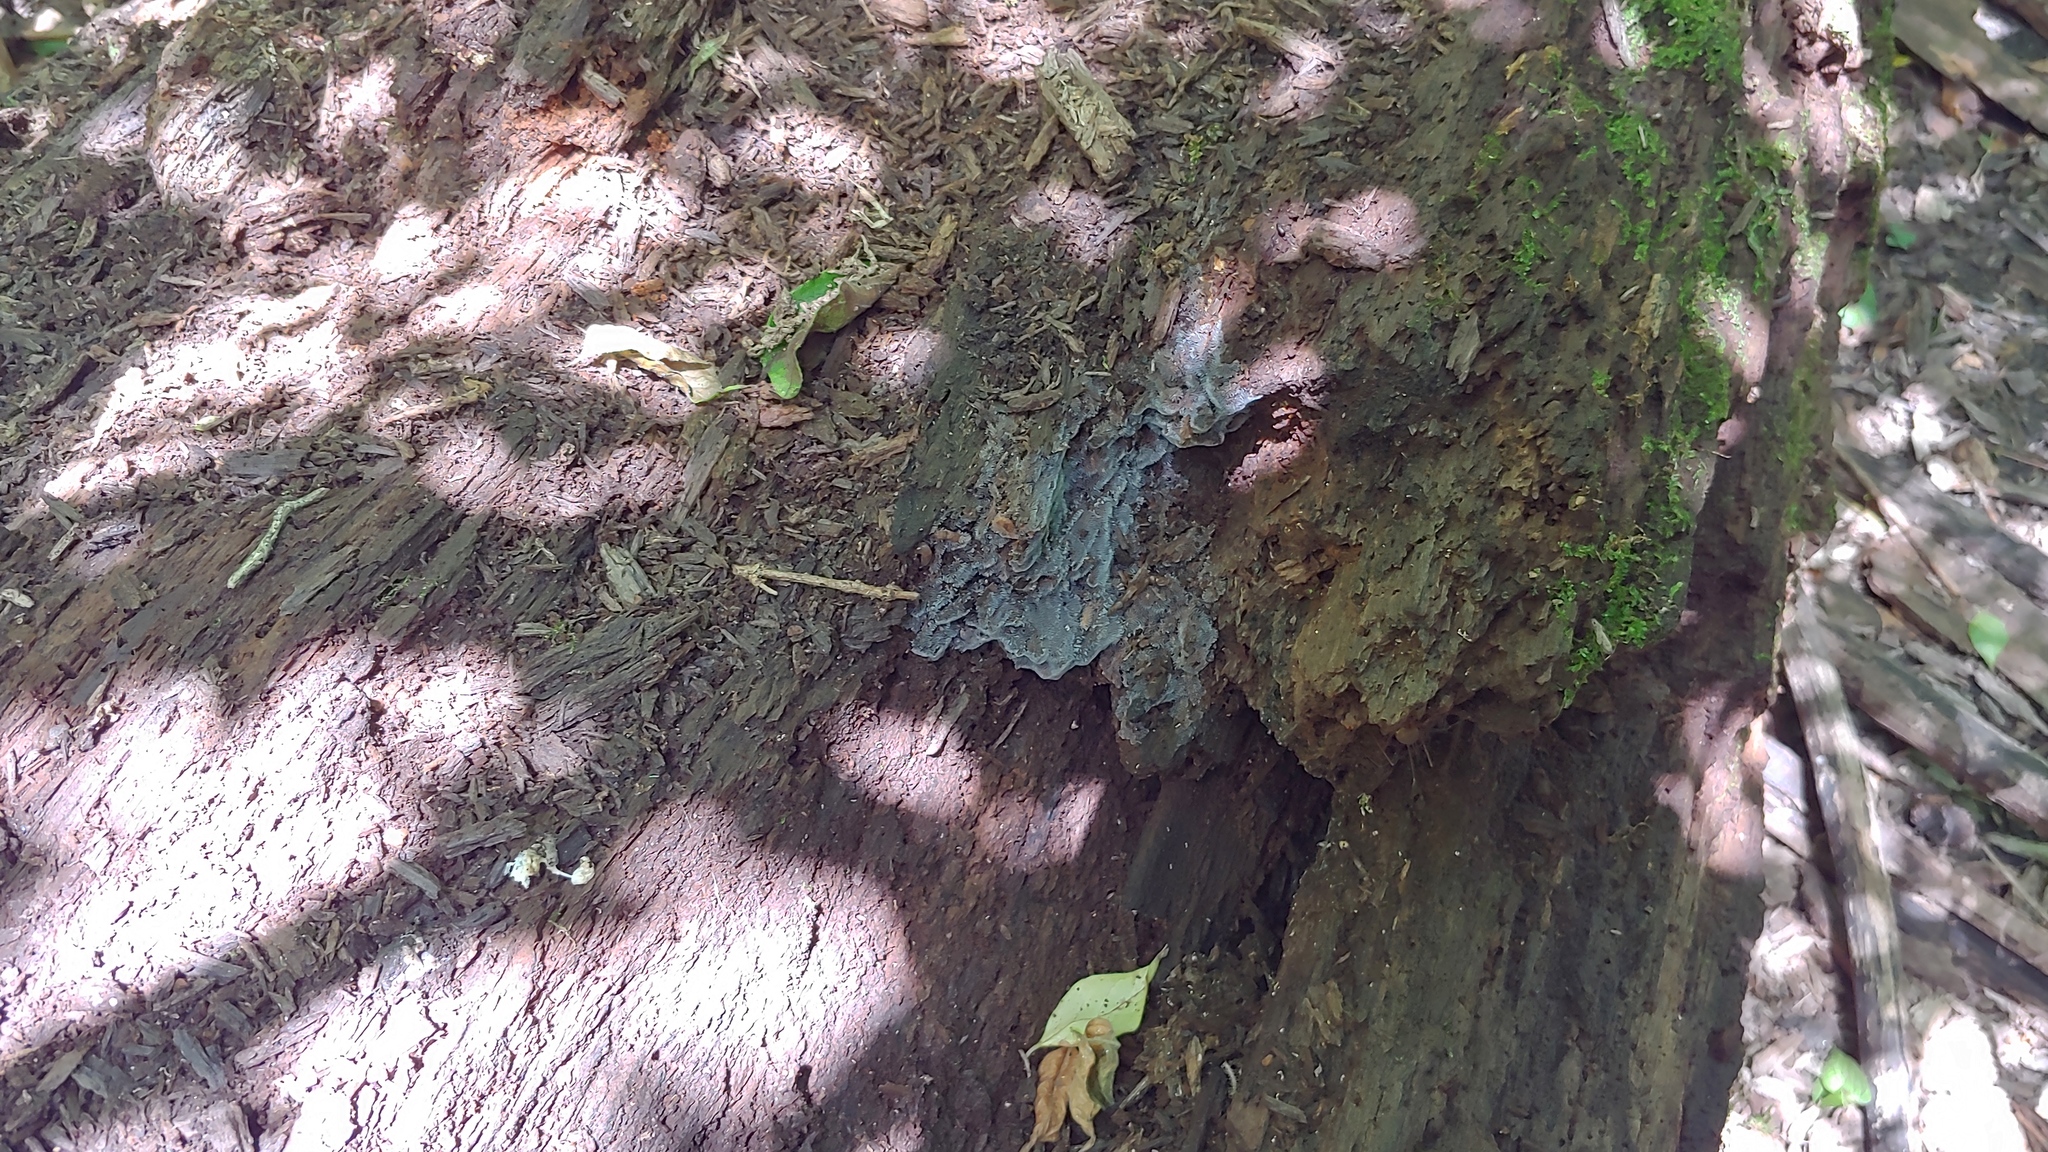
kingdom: Protozoa
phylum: Mycetozoa
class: Protosteliomycetes
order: Ceratiomyxales
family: Ceratiomyxaceae
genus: Ceratiomyxa
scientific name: Ceratiomyxa fruticulosa
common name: Honeycomb coral slime mold
